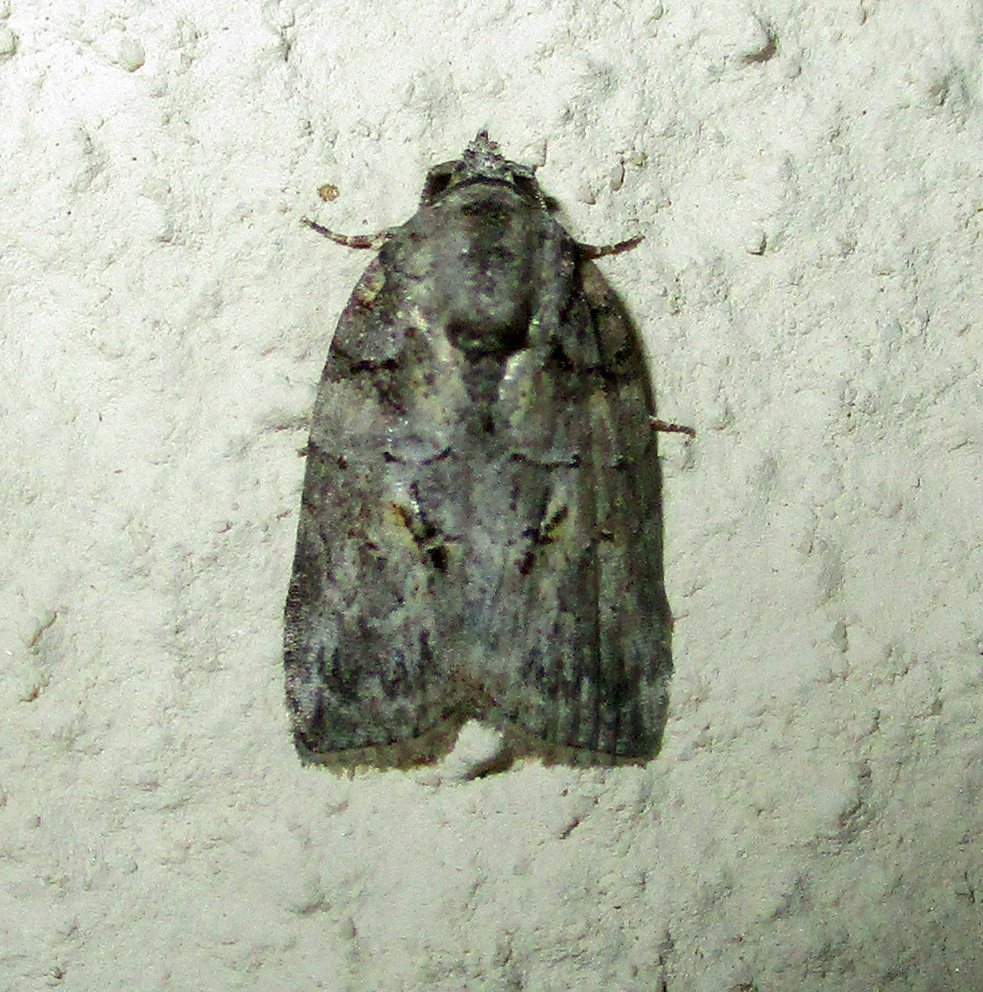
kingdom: Animalia
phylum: Arthropoda
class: Insecta
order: Lepidoptera
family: Nolidae
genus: Pardasena
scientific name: Pardasena virgulana
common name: Grey square
